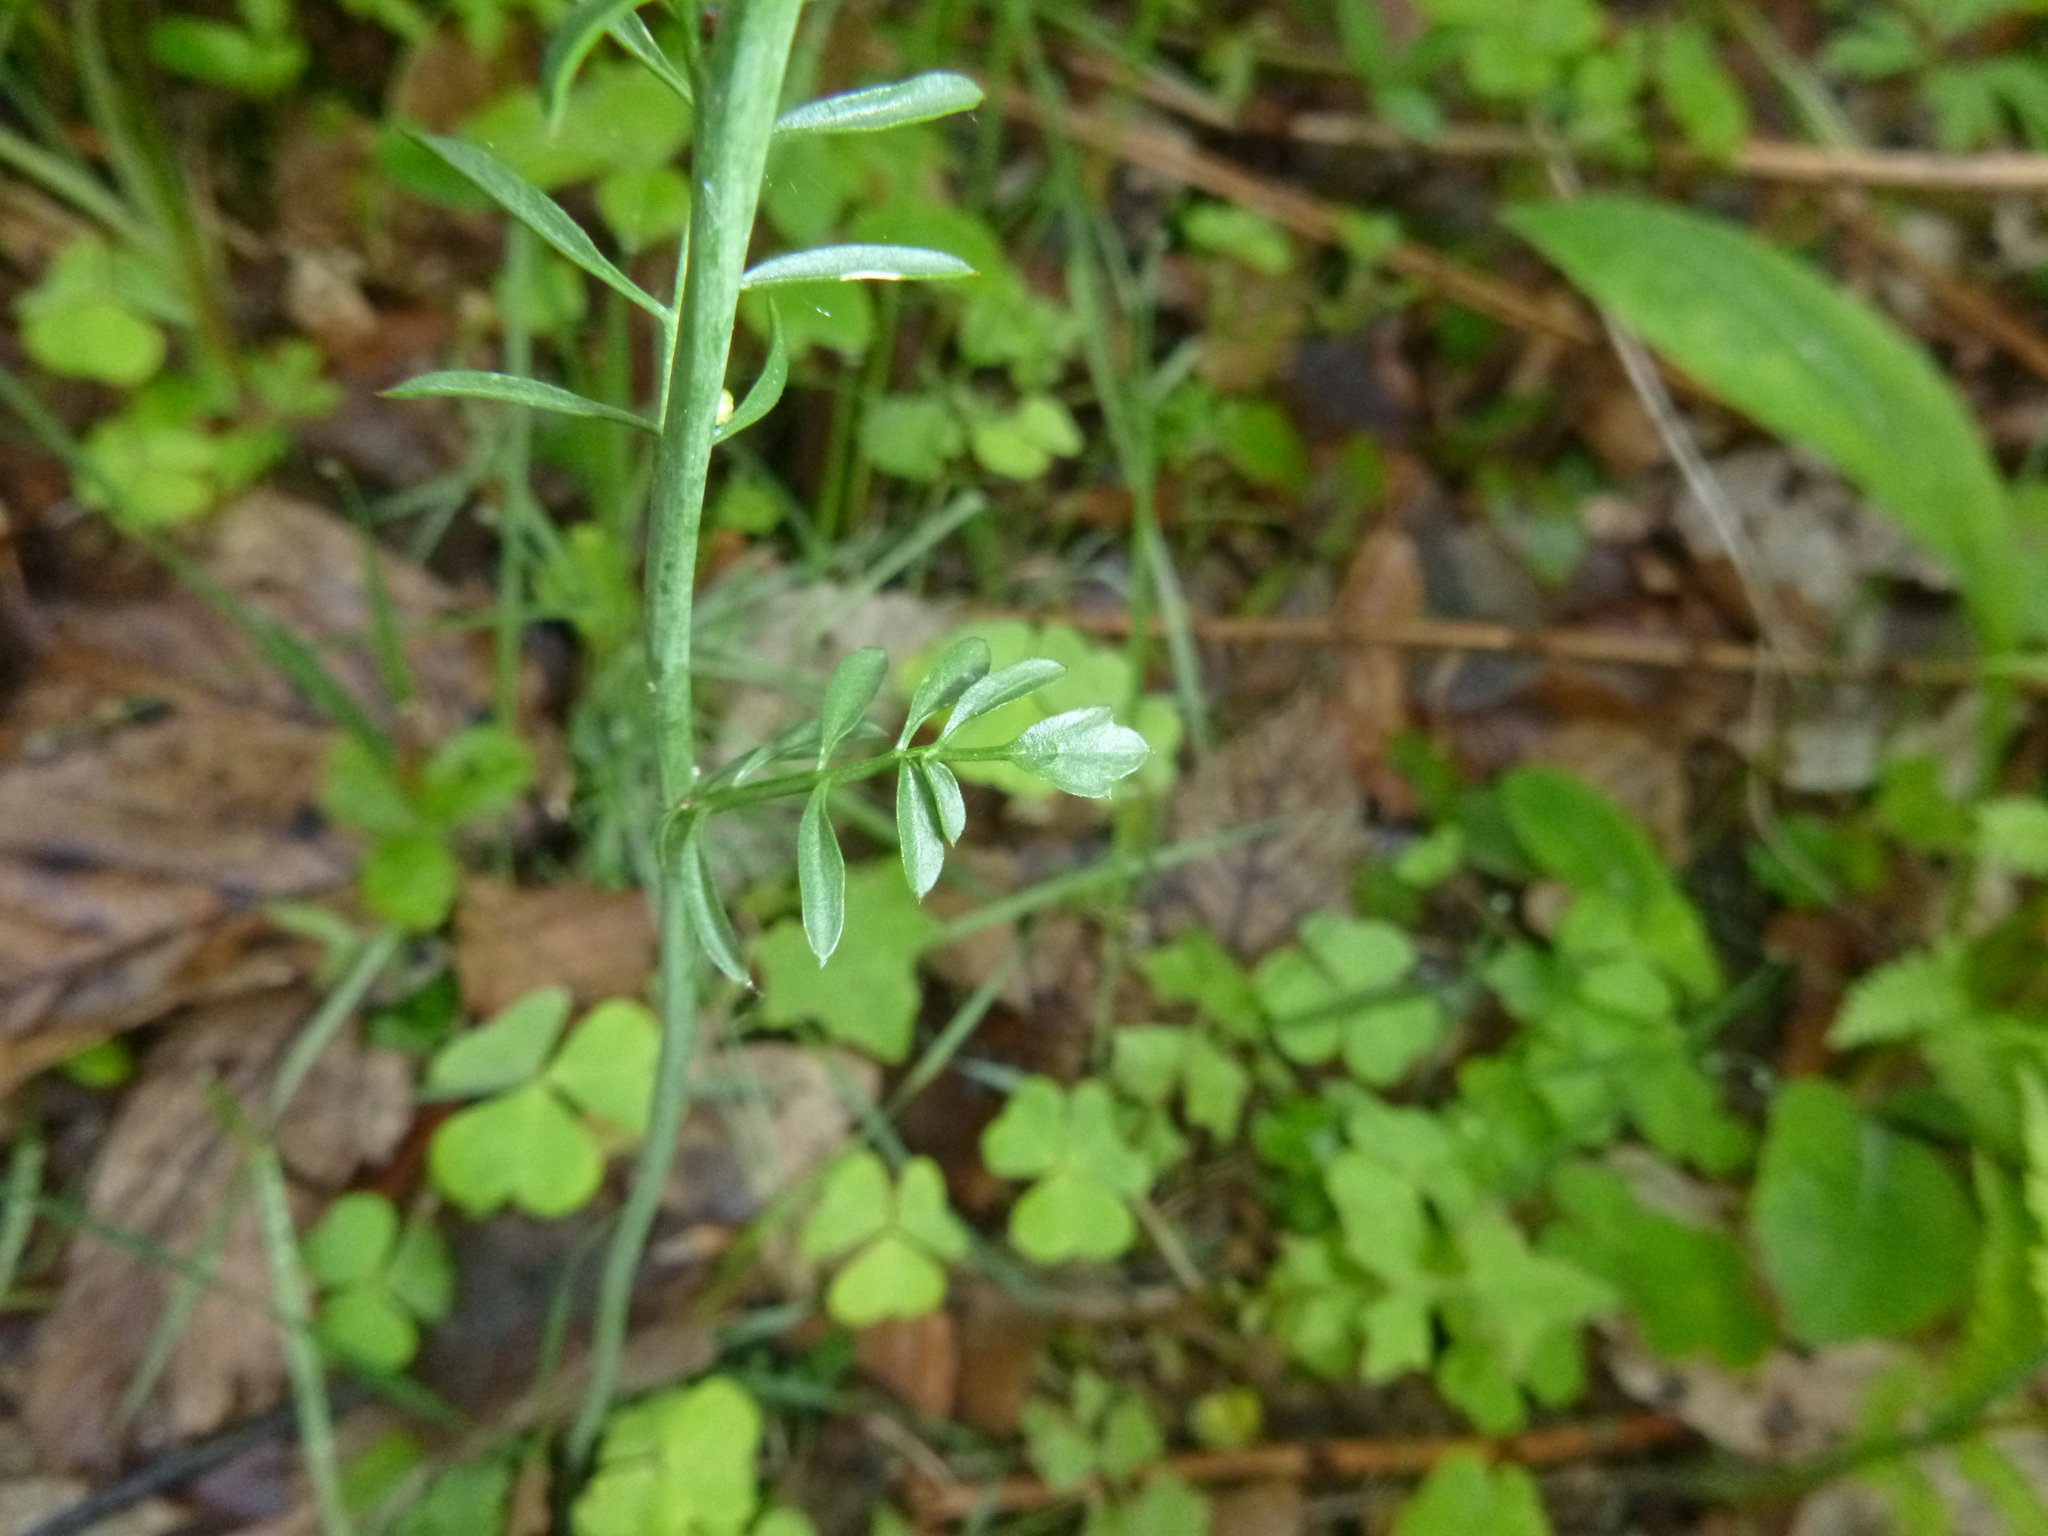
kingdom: Plantae
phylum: Tracheophyta
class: Magnoliopsida
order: Brassicales
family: Brassicaceae
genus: Cardamine
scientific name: Cardamine pratensis
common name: Cuckoo flower
